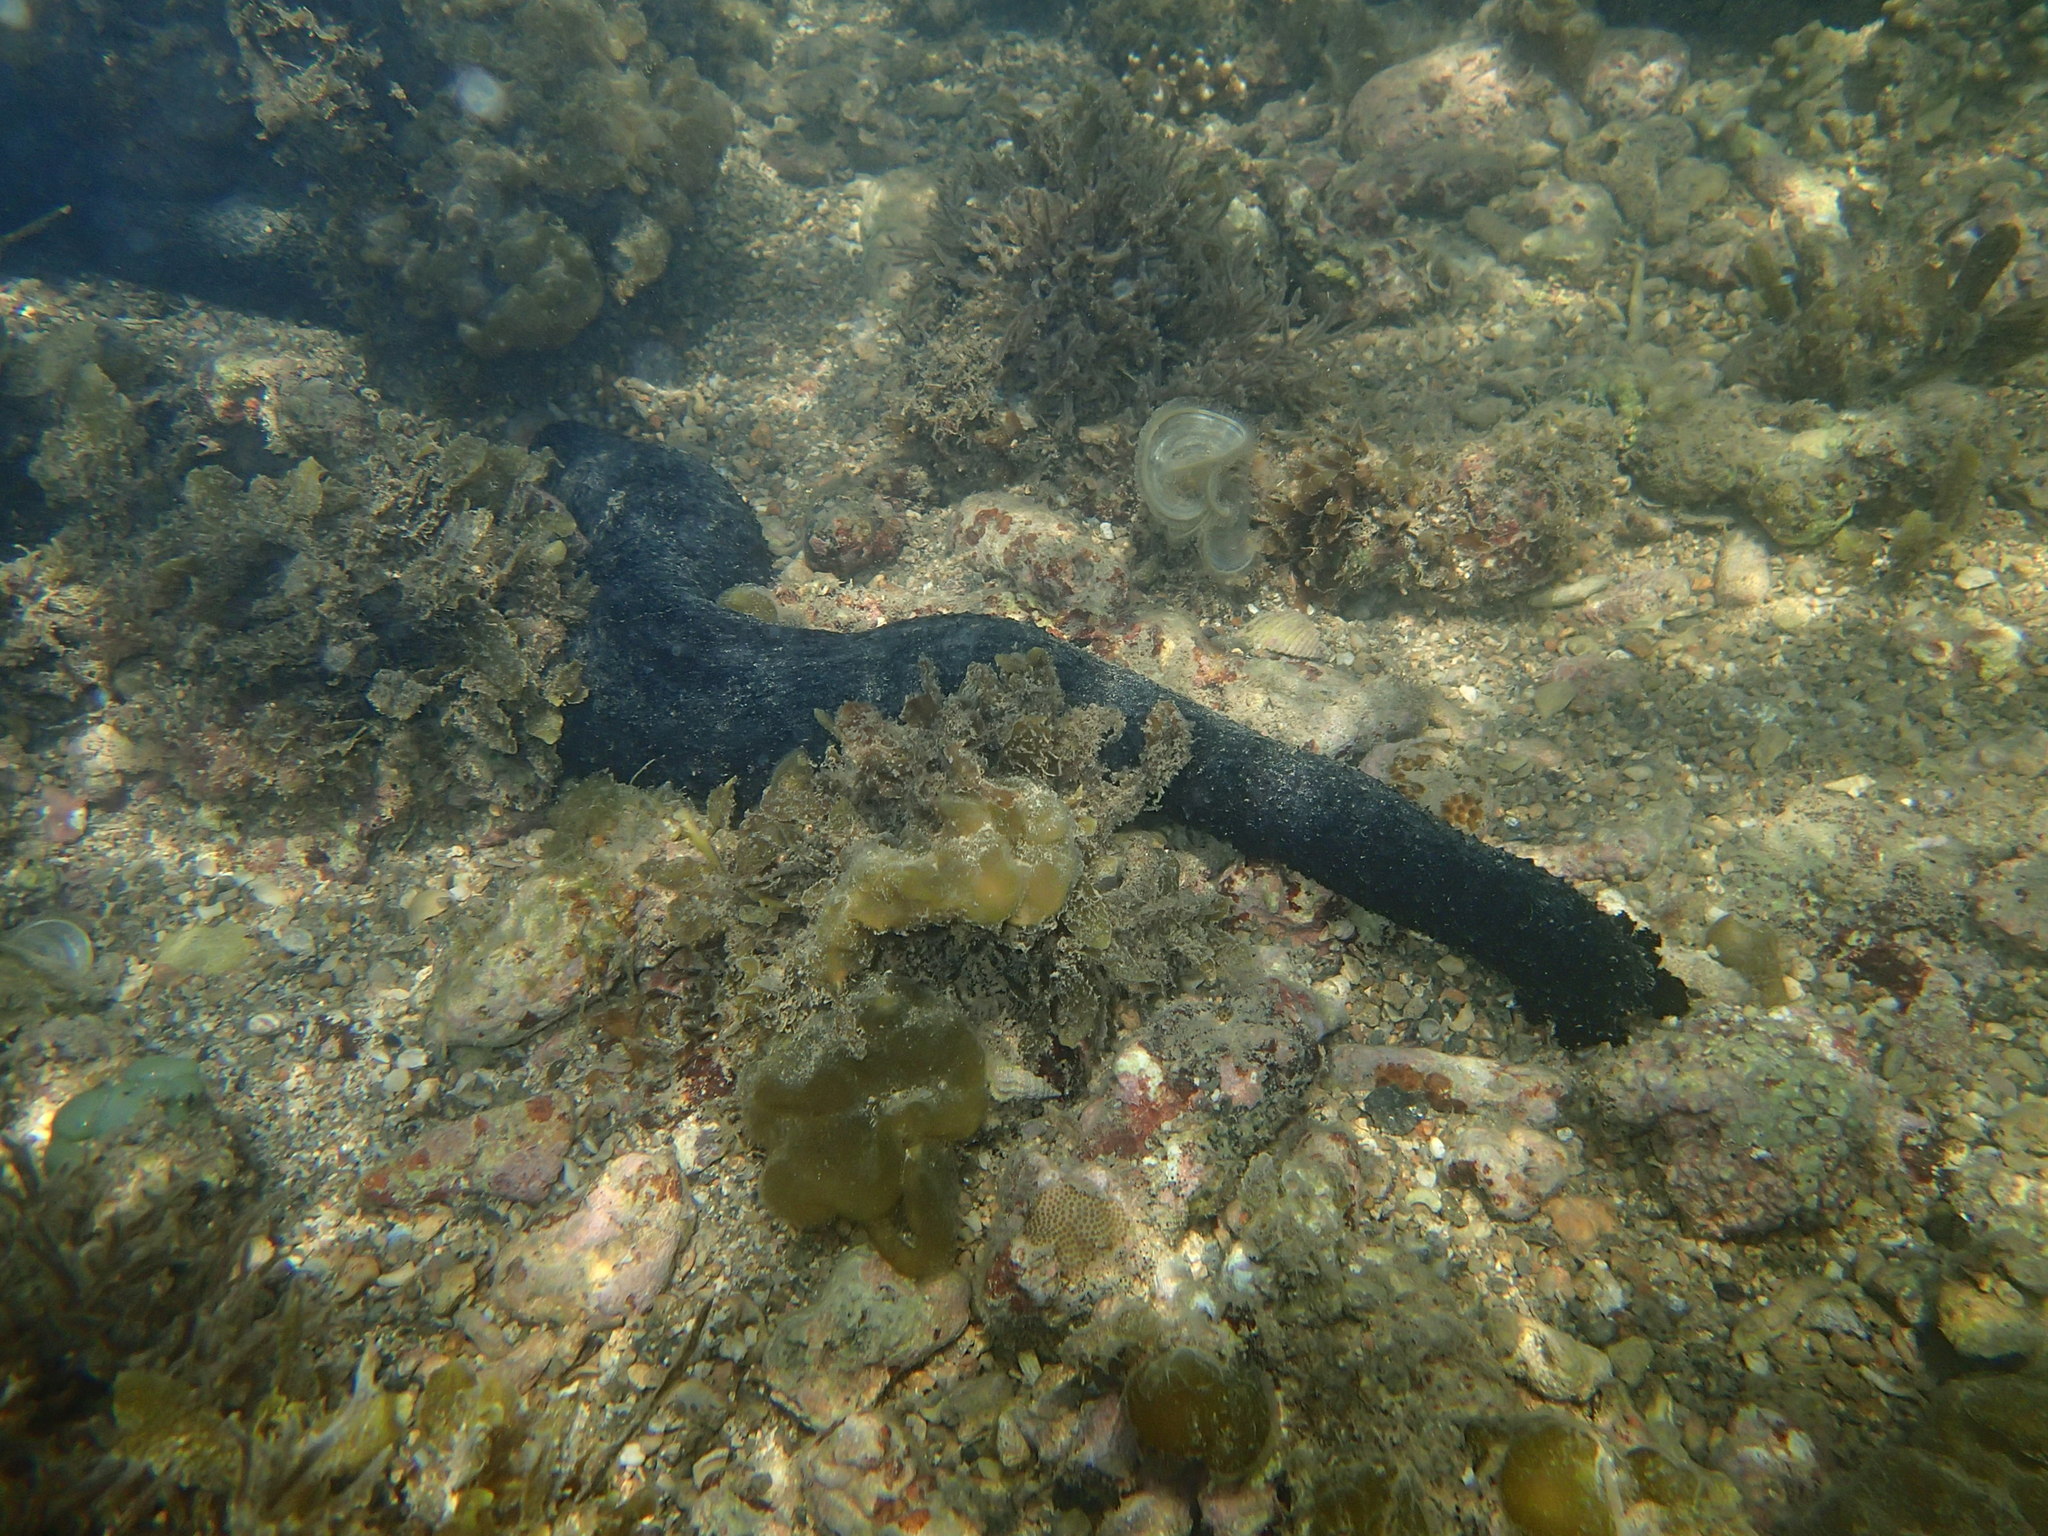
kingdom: Animalia
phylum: Echinodermata
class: Holothuroidea
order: Holothuriida
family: Holothuriidae
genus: Holothuria
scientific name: Holothuria leucospilota
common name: White thread fish
